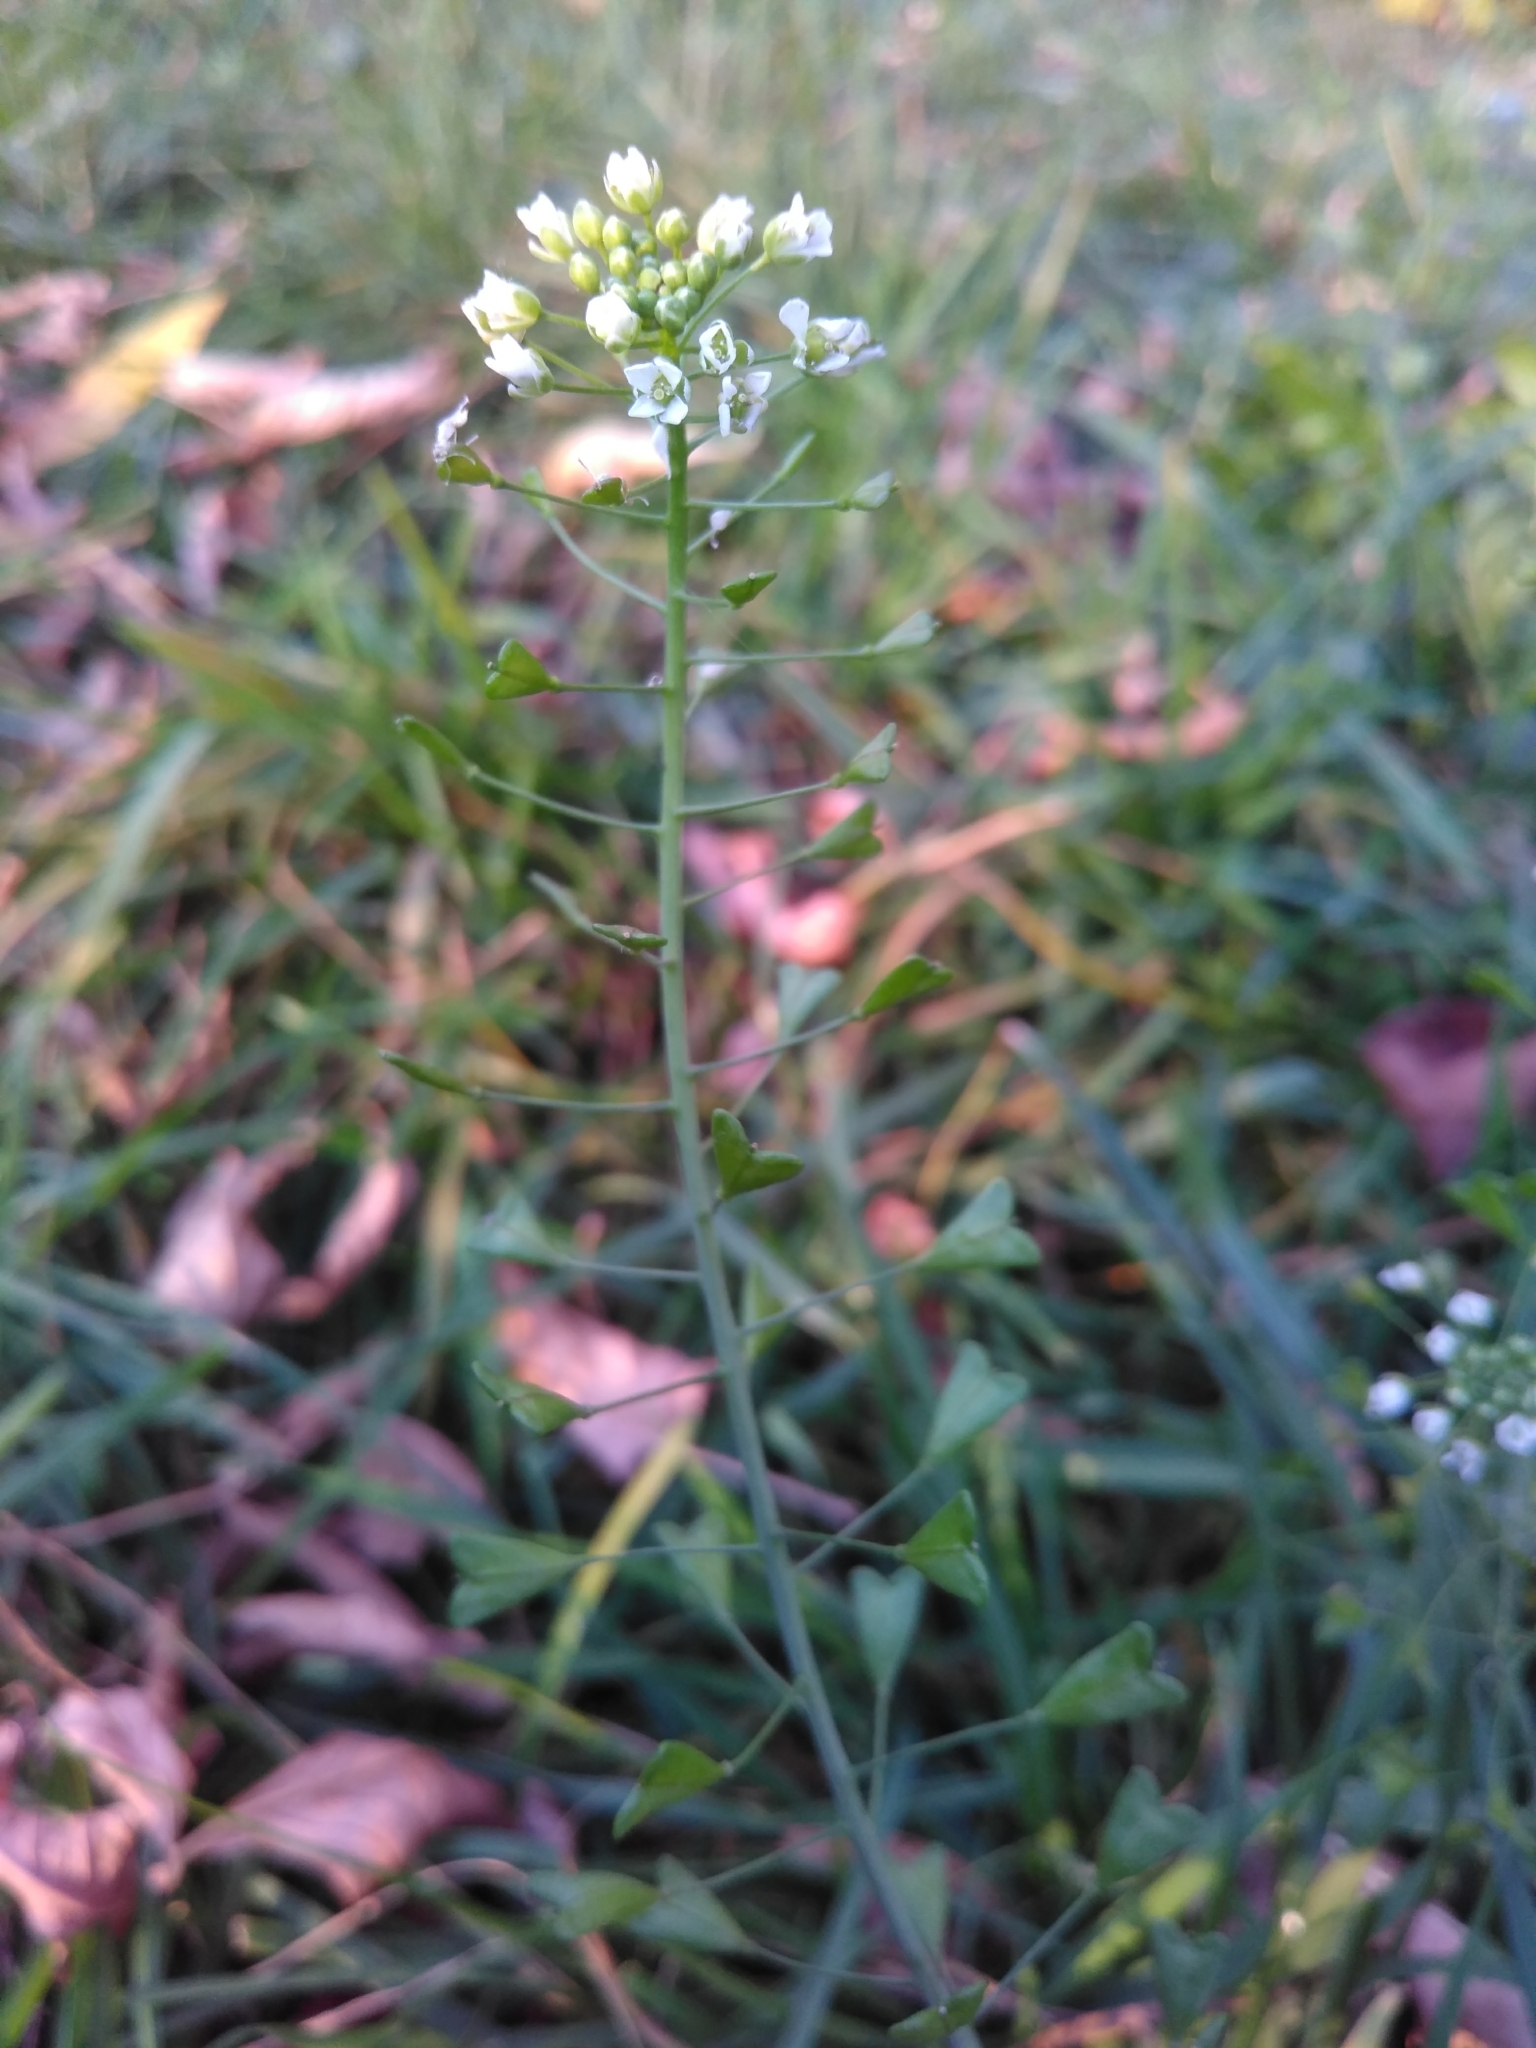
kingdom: Plantae
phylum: Tracheophyta
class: Magnoliopsida
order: Brassicales
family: Brassicaceae
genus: Capsella
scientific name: Capsella bursa-pastoris
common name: Shepherd's purse
